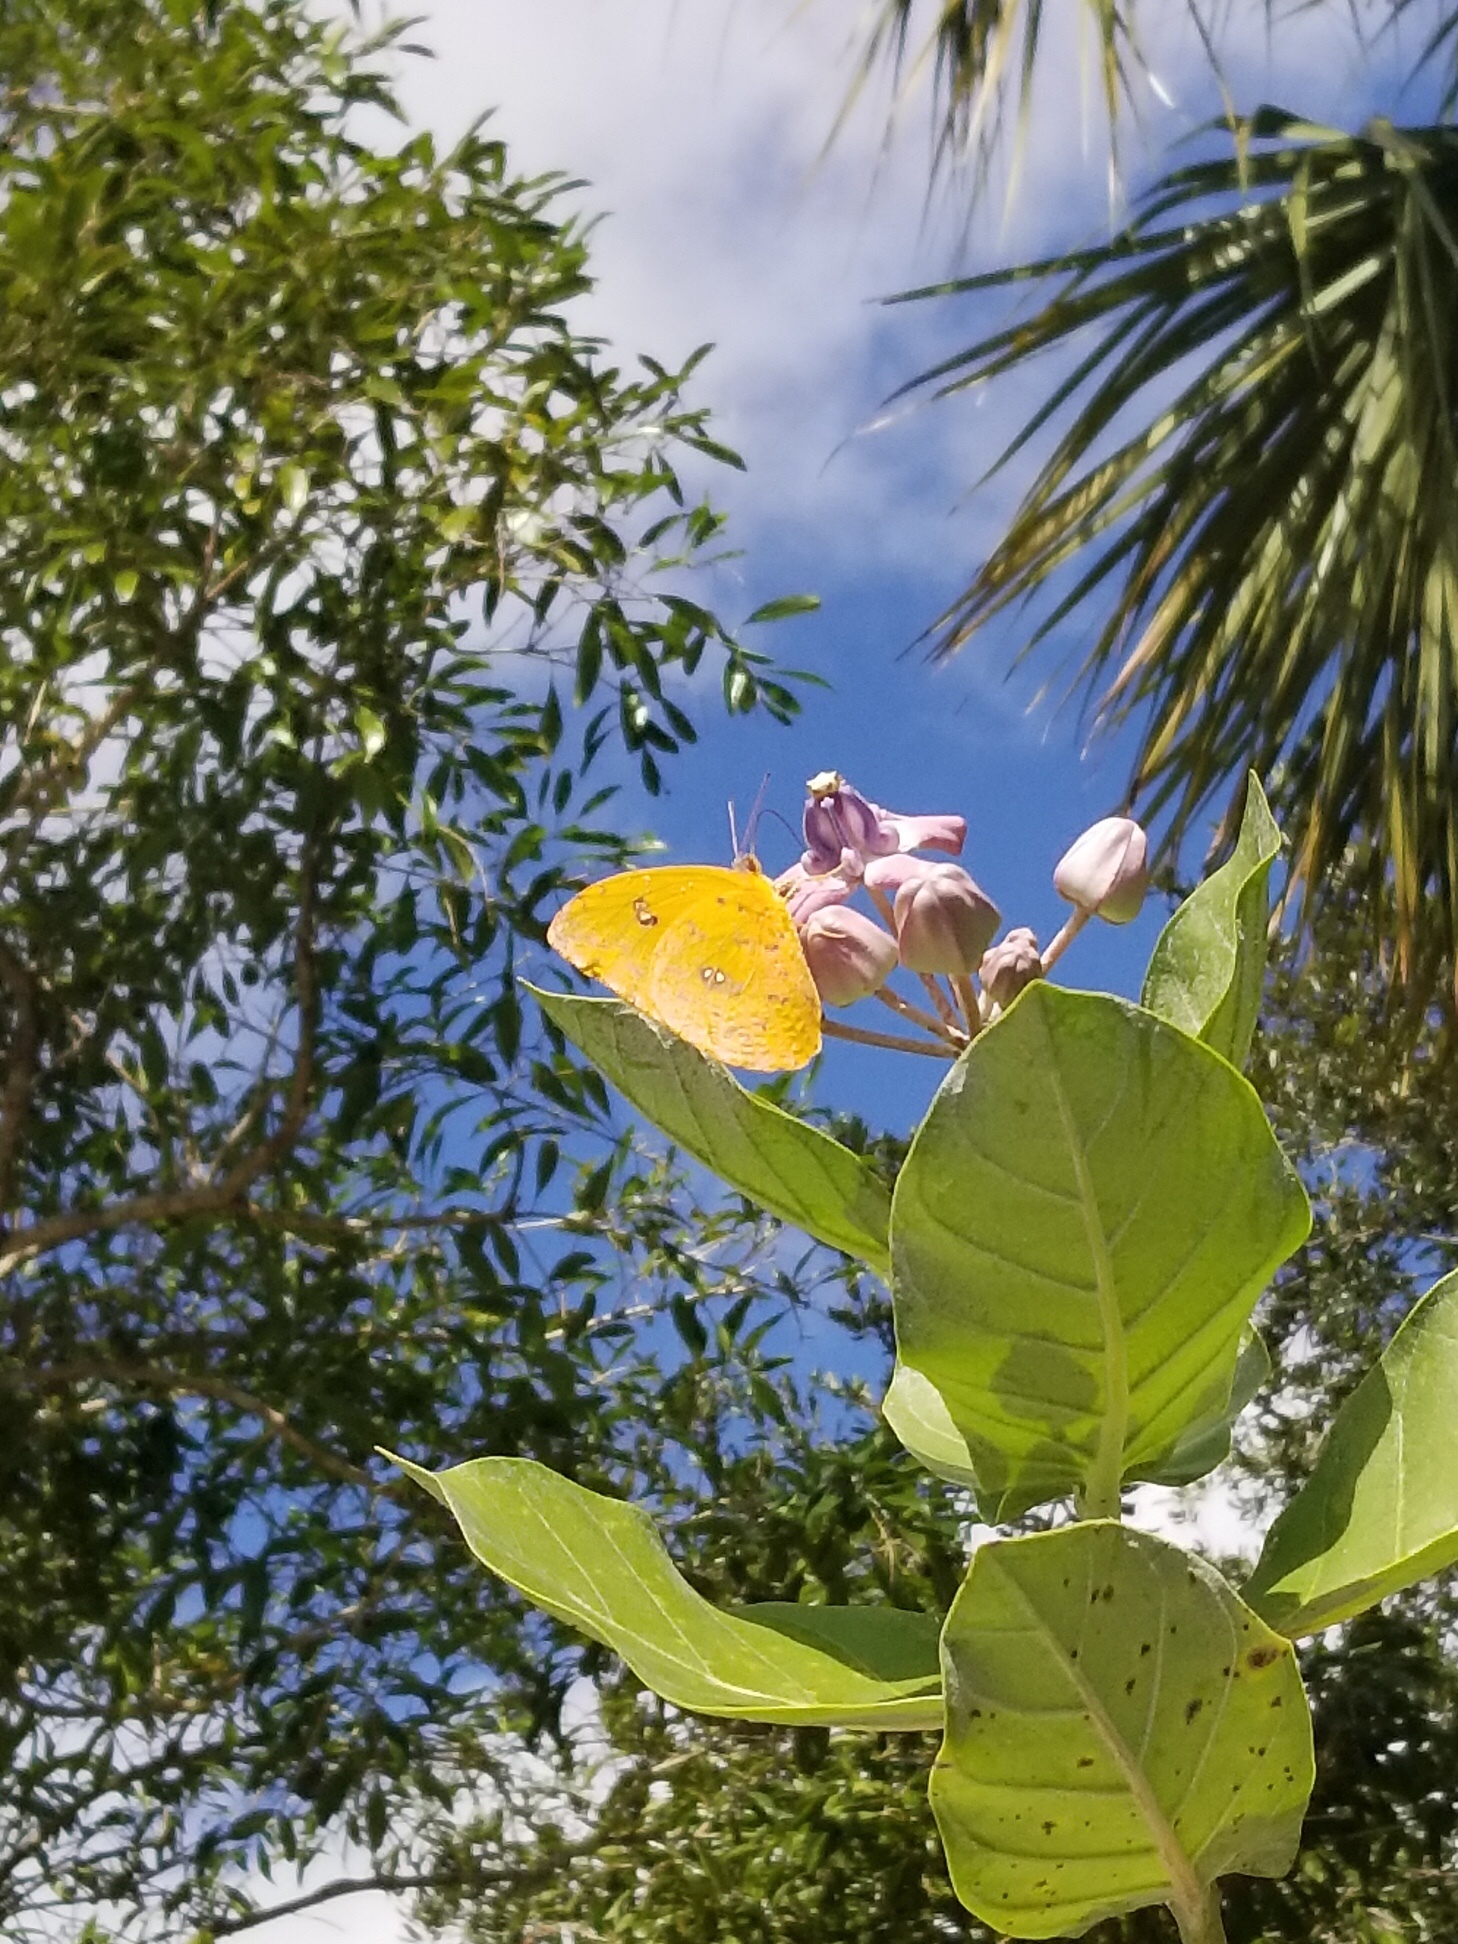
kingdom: Animalia
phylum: Arthropoda
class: Insecta
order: Lepidoptera
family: Pieridae
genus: Phoebis
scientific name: Phoebis philea
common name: Orange-barred giant sulphur
